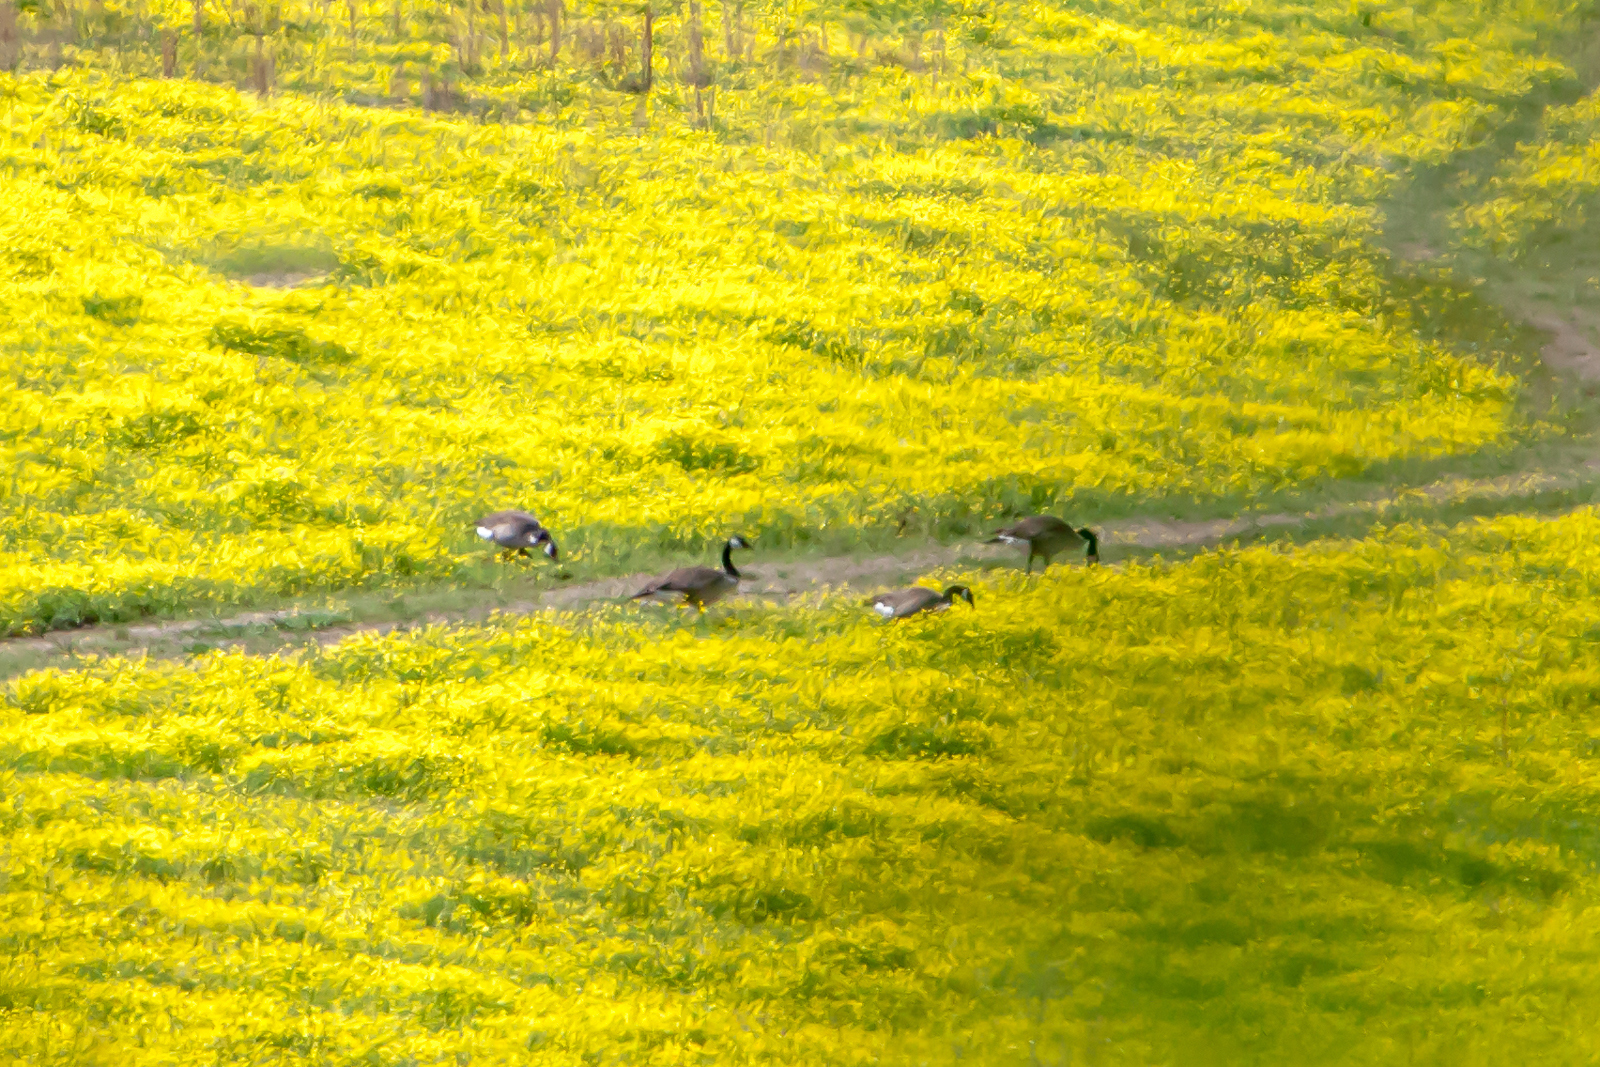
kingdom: Animalia
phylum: Chordata
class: Aves
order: Anseriformes
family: Anatidae
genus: Branta
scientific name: Branta canadensis
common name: Canada goose
